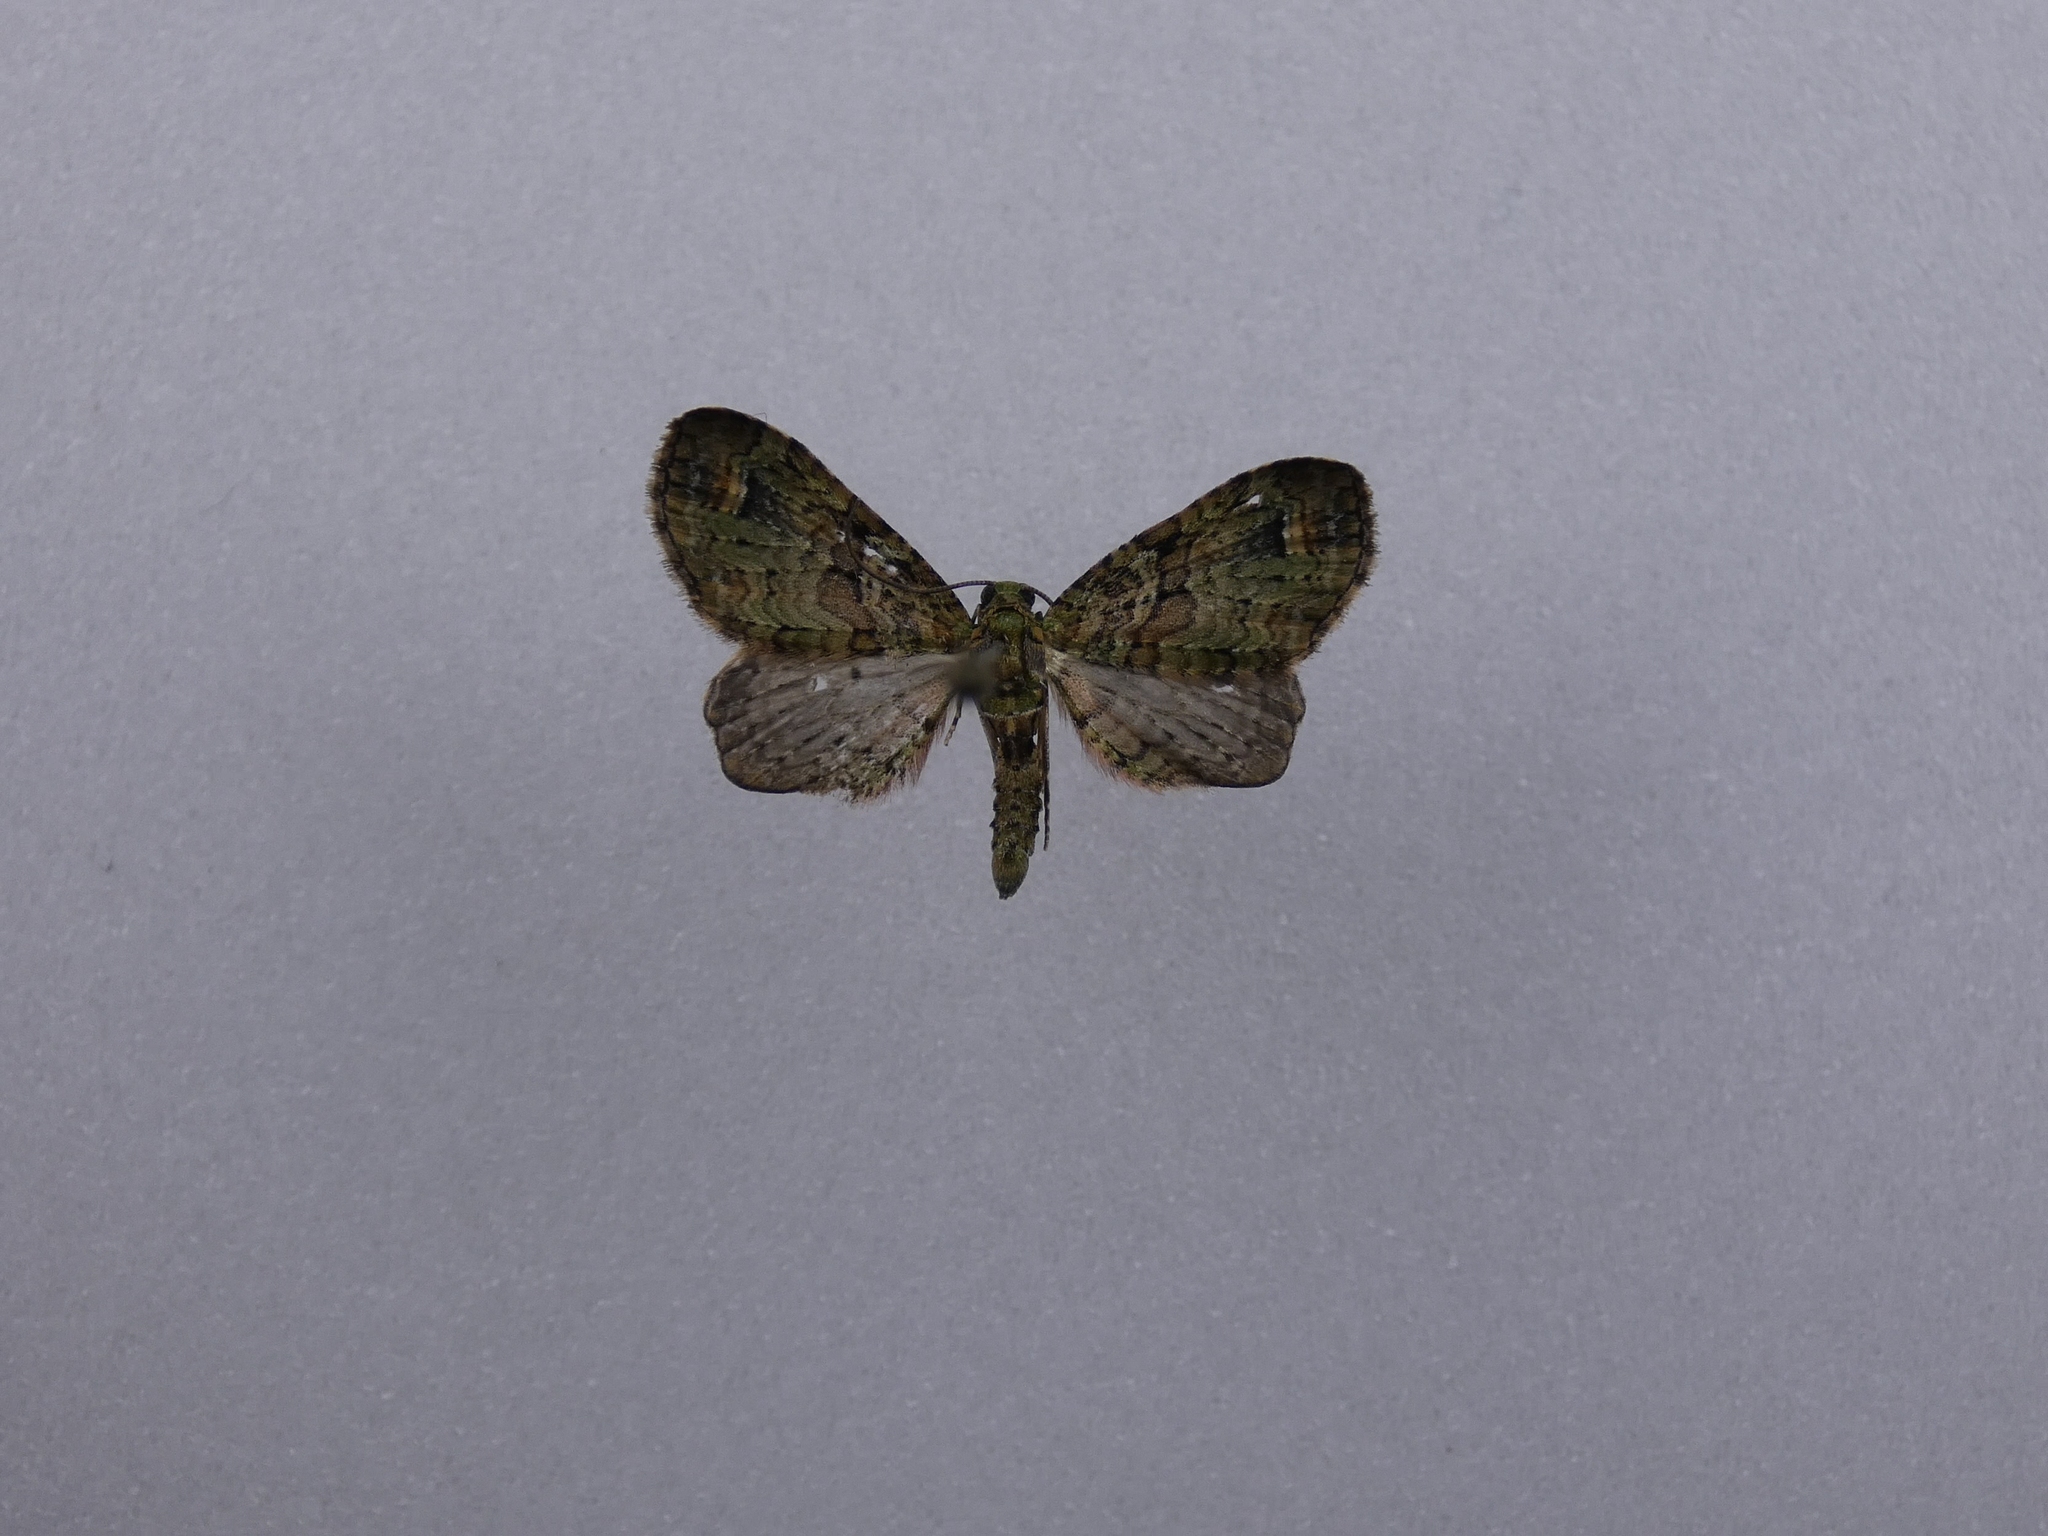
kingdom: Animalia
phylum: Arthropoda
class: Insecta
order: Lepidoptera
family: Geometridae
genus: Idaea
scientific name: Idaea mutanda
